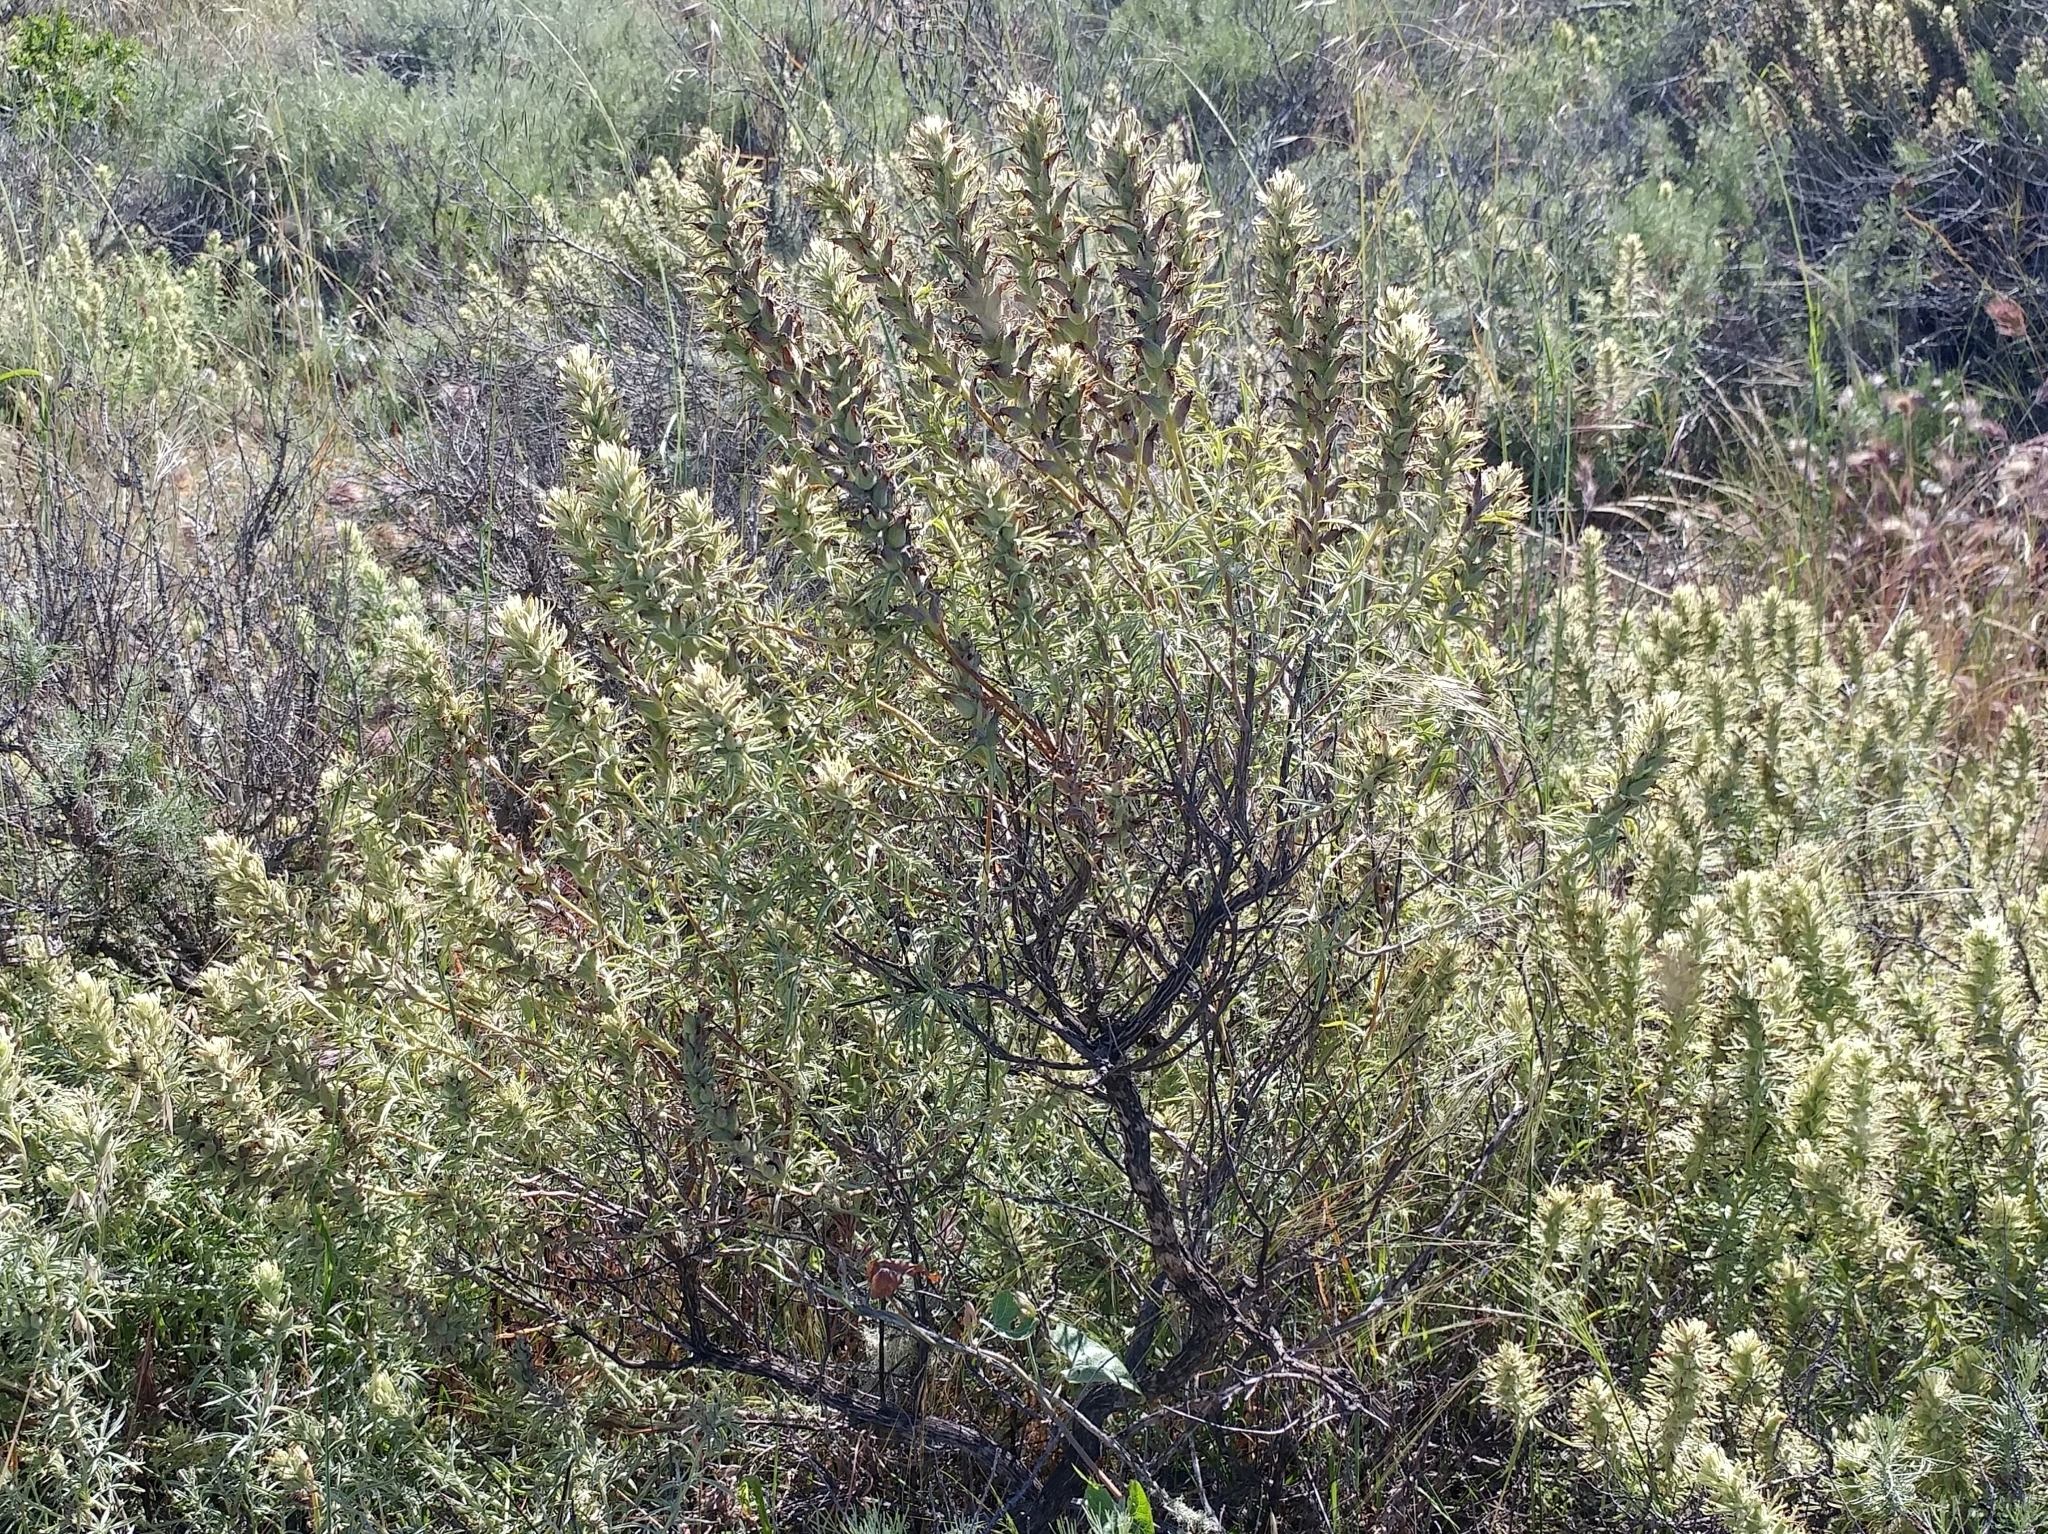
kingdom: Plantae
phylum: Tracheophyta
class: Magnoliopsida
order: Lamiales
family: Orobanchaceae
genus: Castilleja
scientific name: Castilleja grisea
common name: San clemente island indian paintbrush
